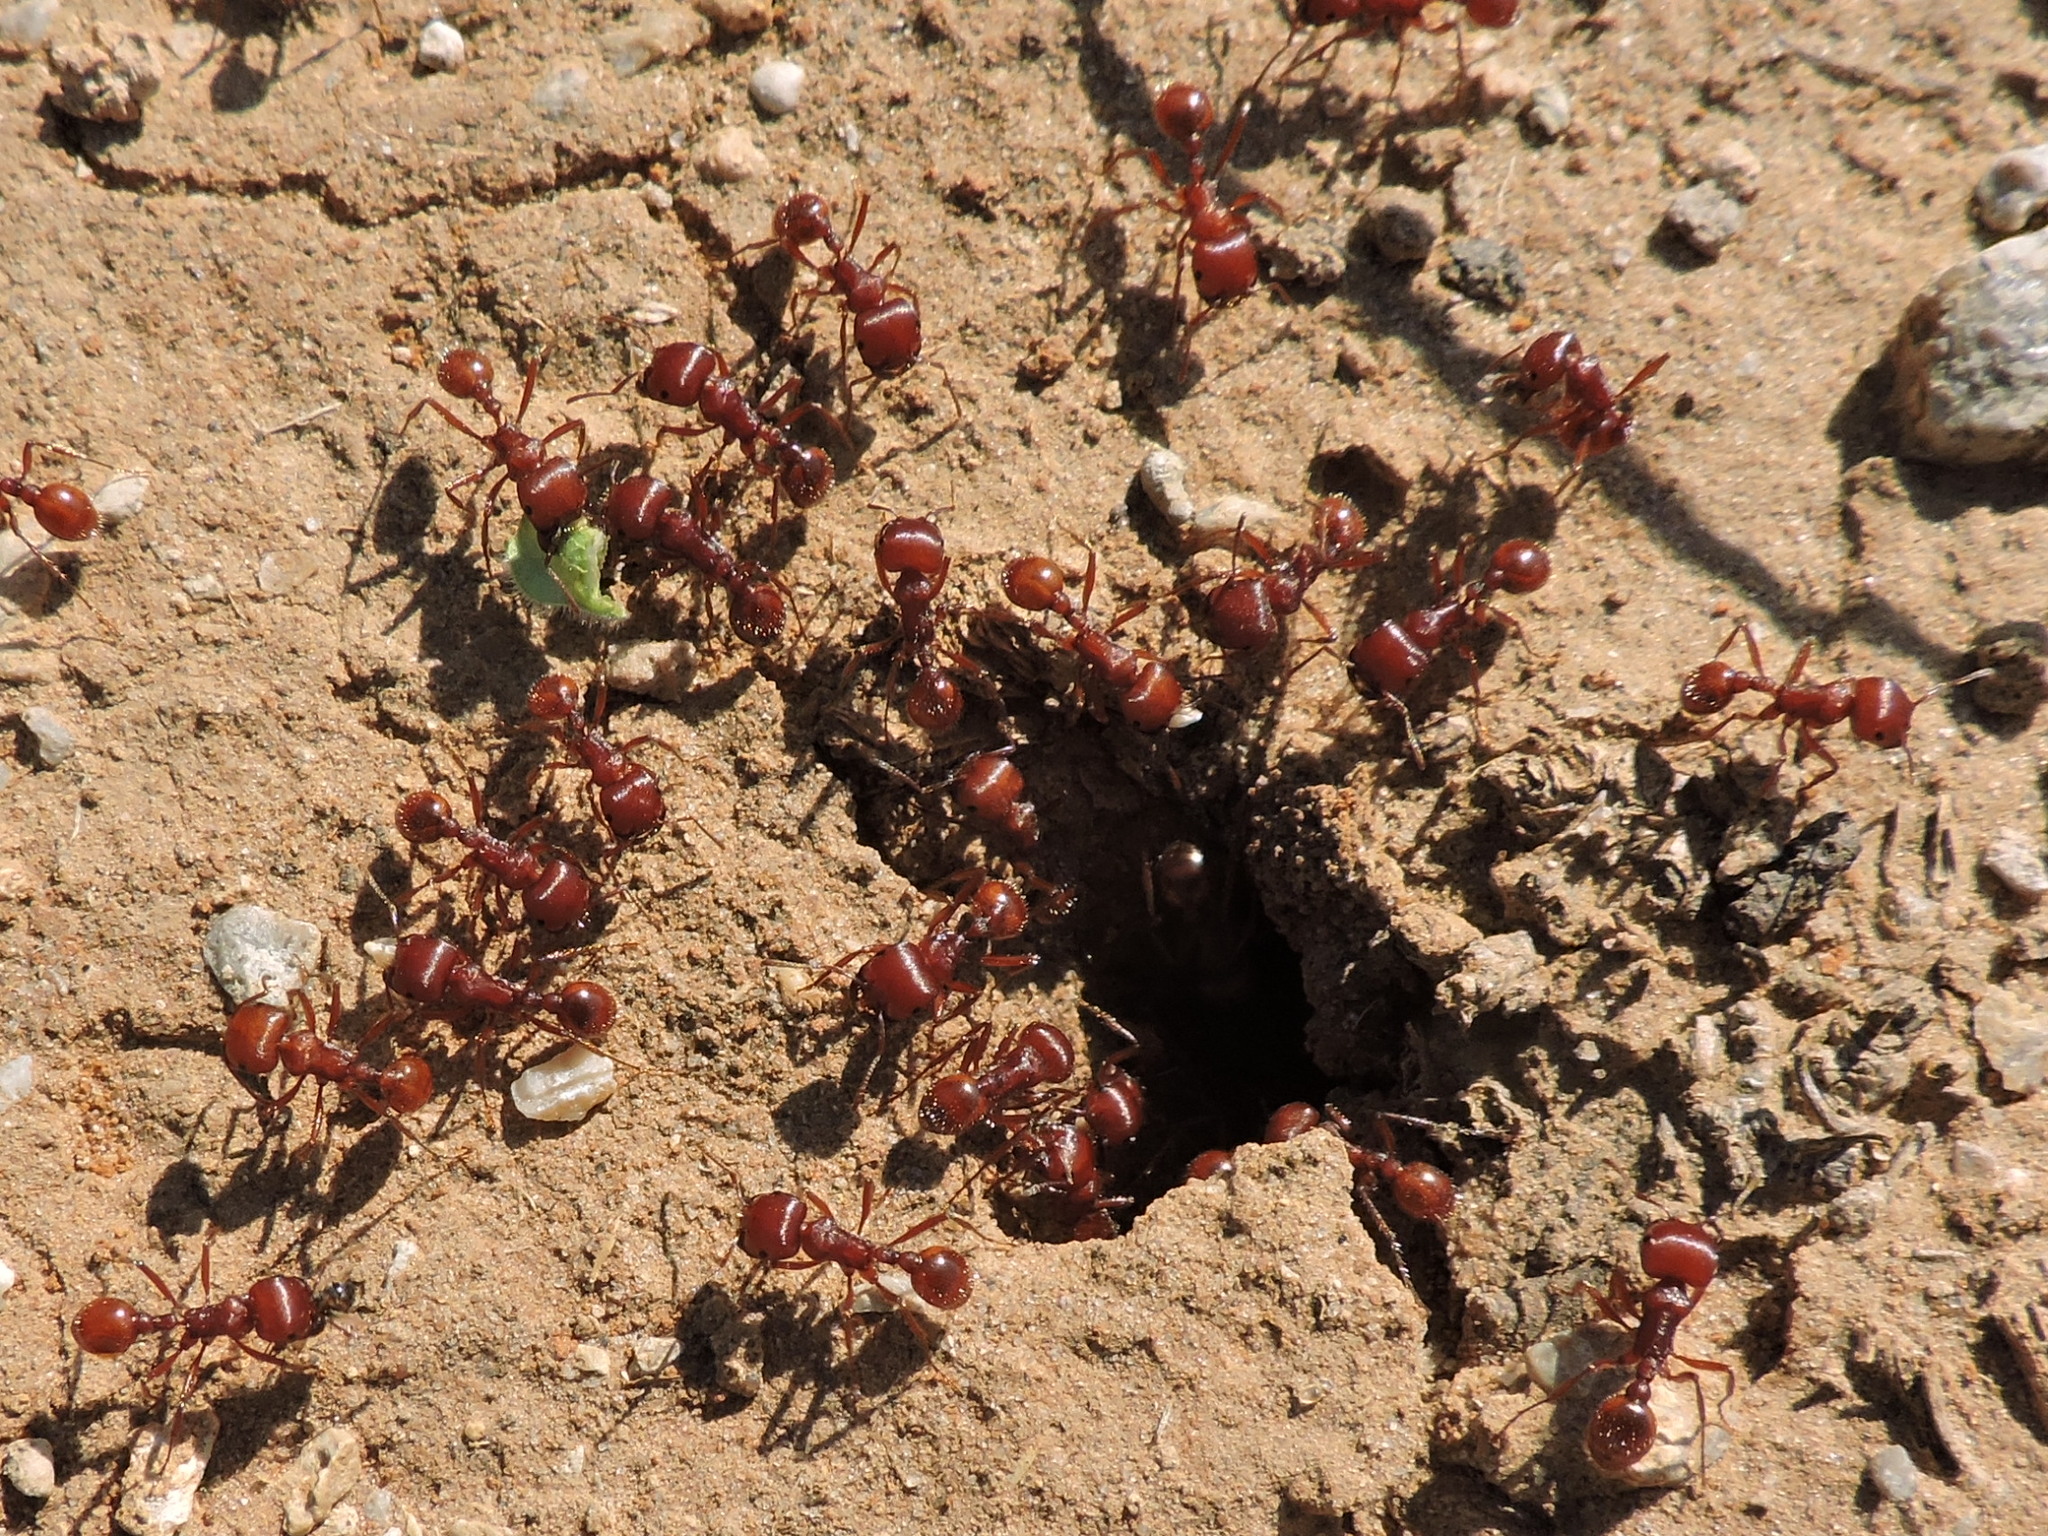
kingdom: Animalia
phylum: Arthropoda
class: Insecta
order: Hymenoptera
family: Formicidae
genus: Pogonomyrmex
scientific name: Pogonomyrmex barbatus
